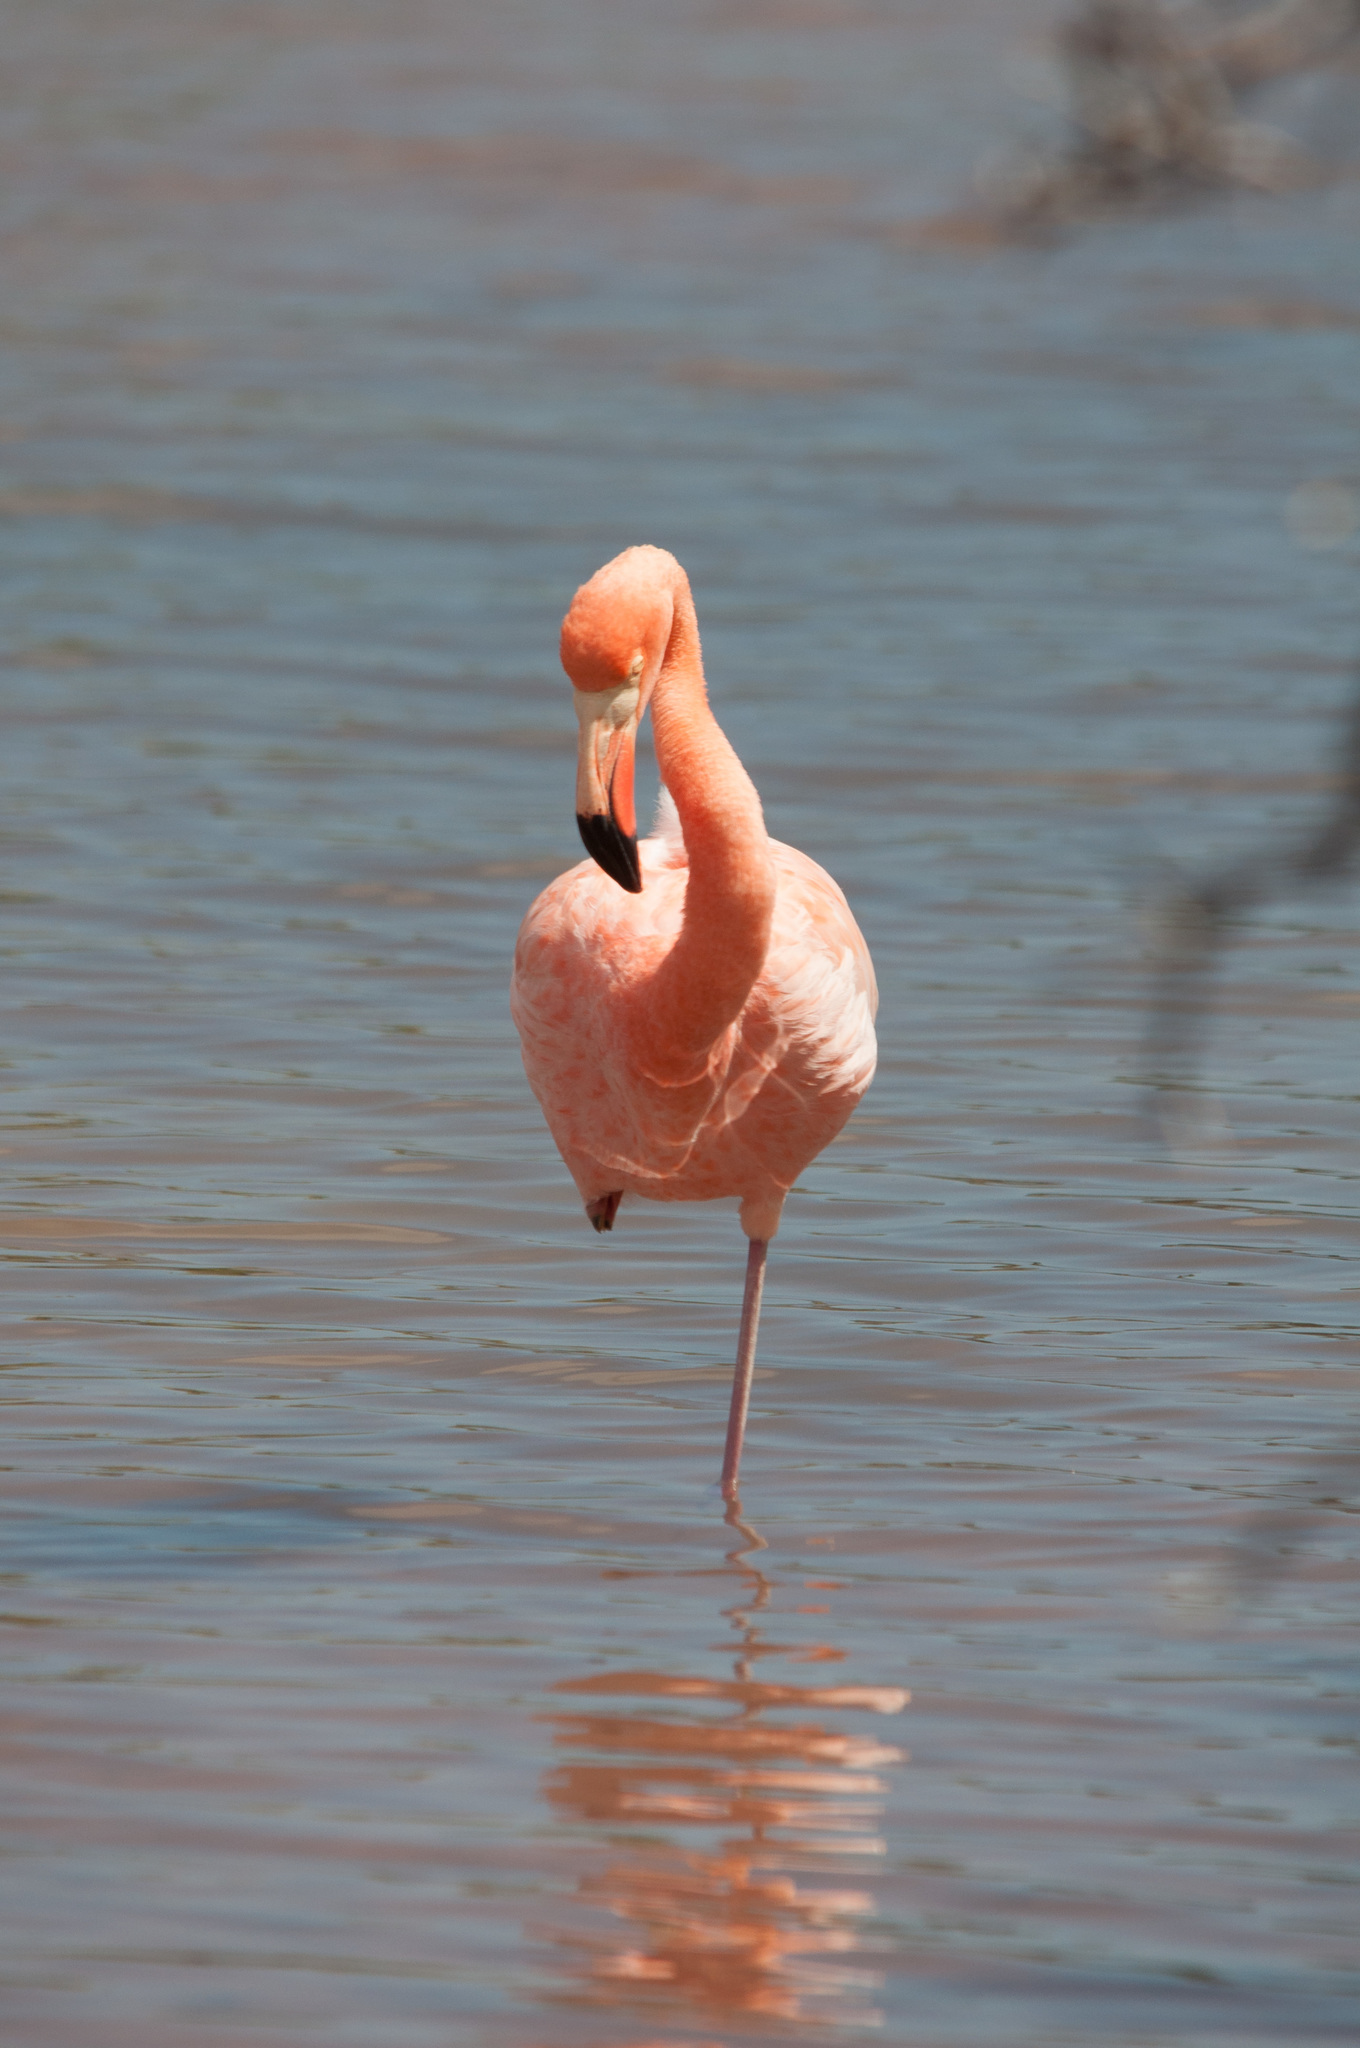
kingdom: Animalia
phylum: Chordata
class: Aves
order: Phoenicopteriformes
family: Phoenicopteridae
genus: Phoenicopterus
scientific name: Phoenicopterus ruber
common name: American flamingo
